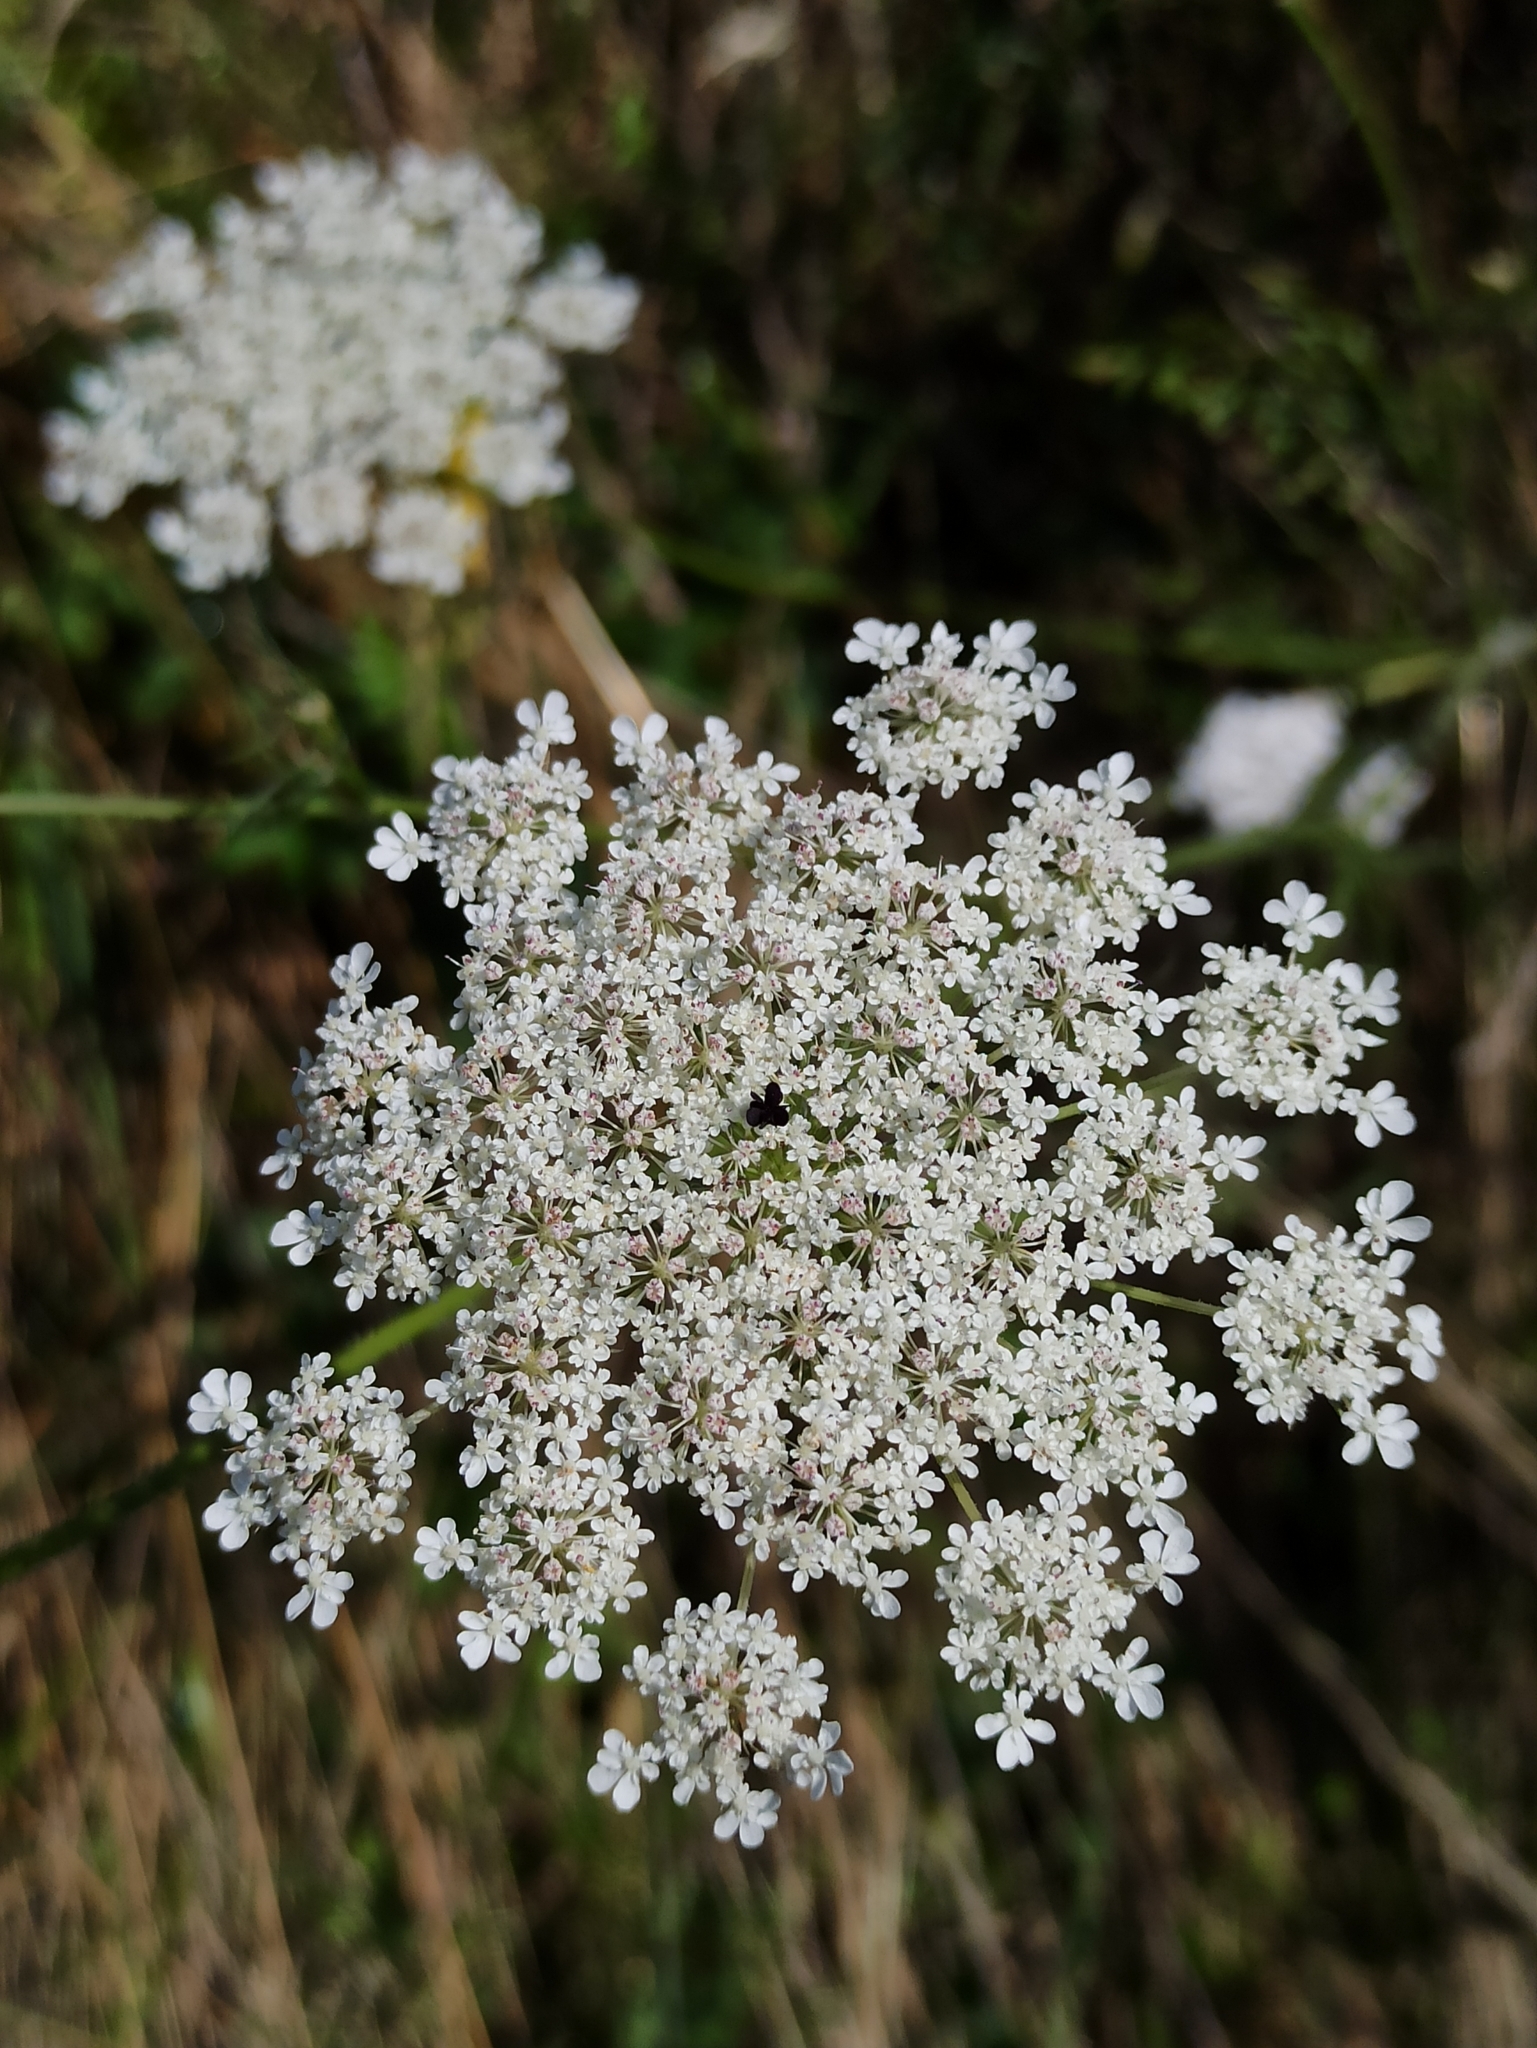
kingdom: Plantae
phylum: Tracheophyta
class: Magnoliopsida
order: Apiales
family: Apiaceae
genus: Daucus
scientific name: Daucus carota
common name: Wild carrot
